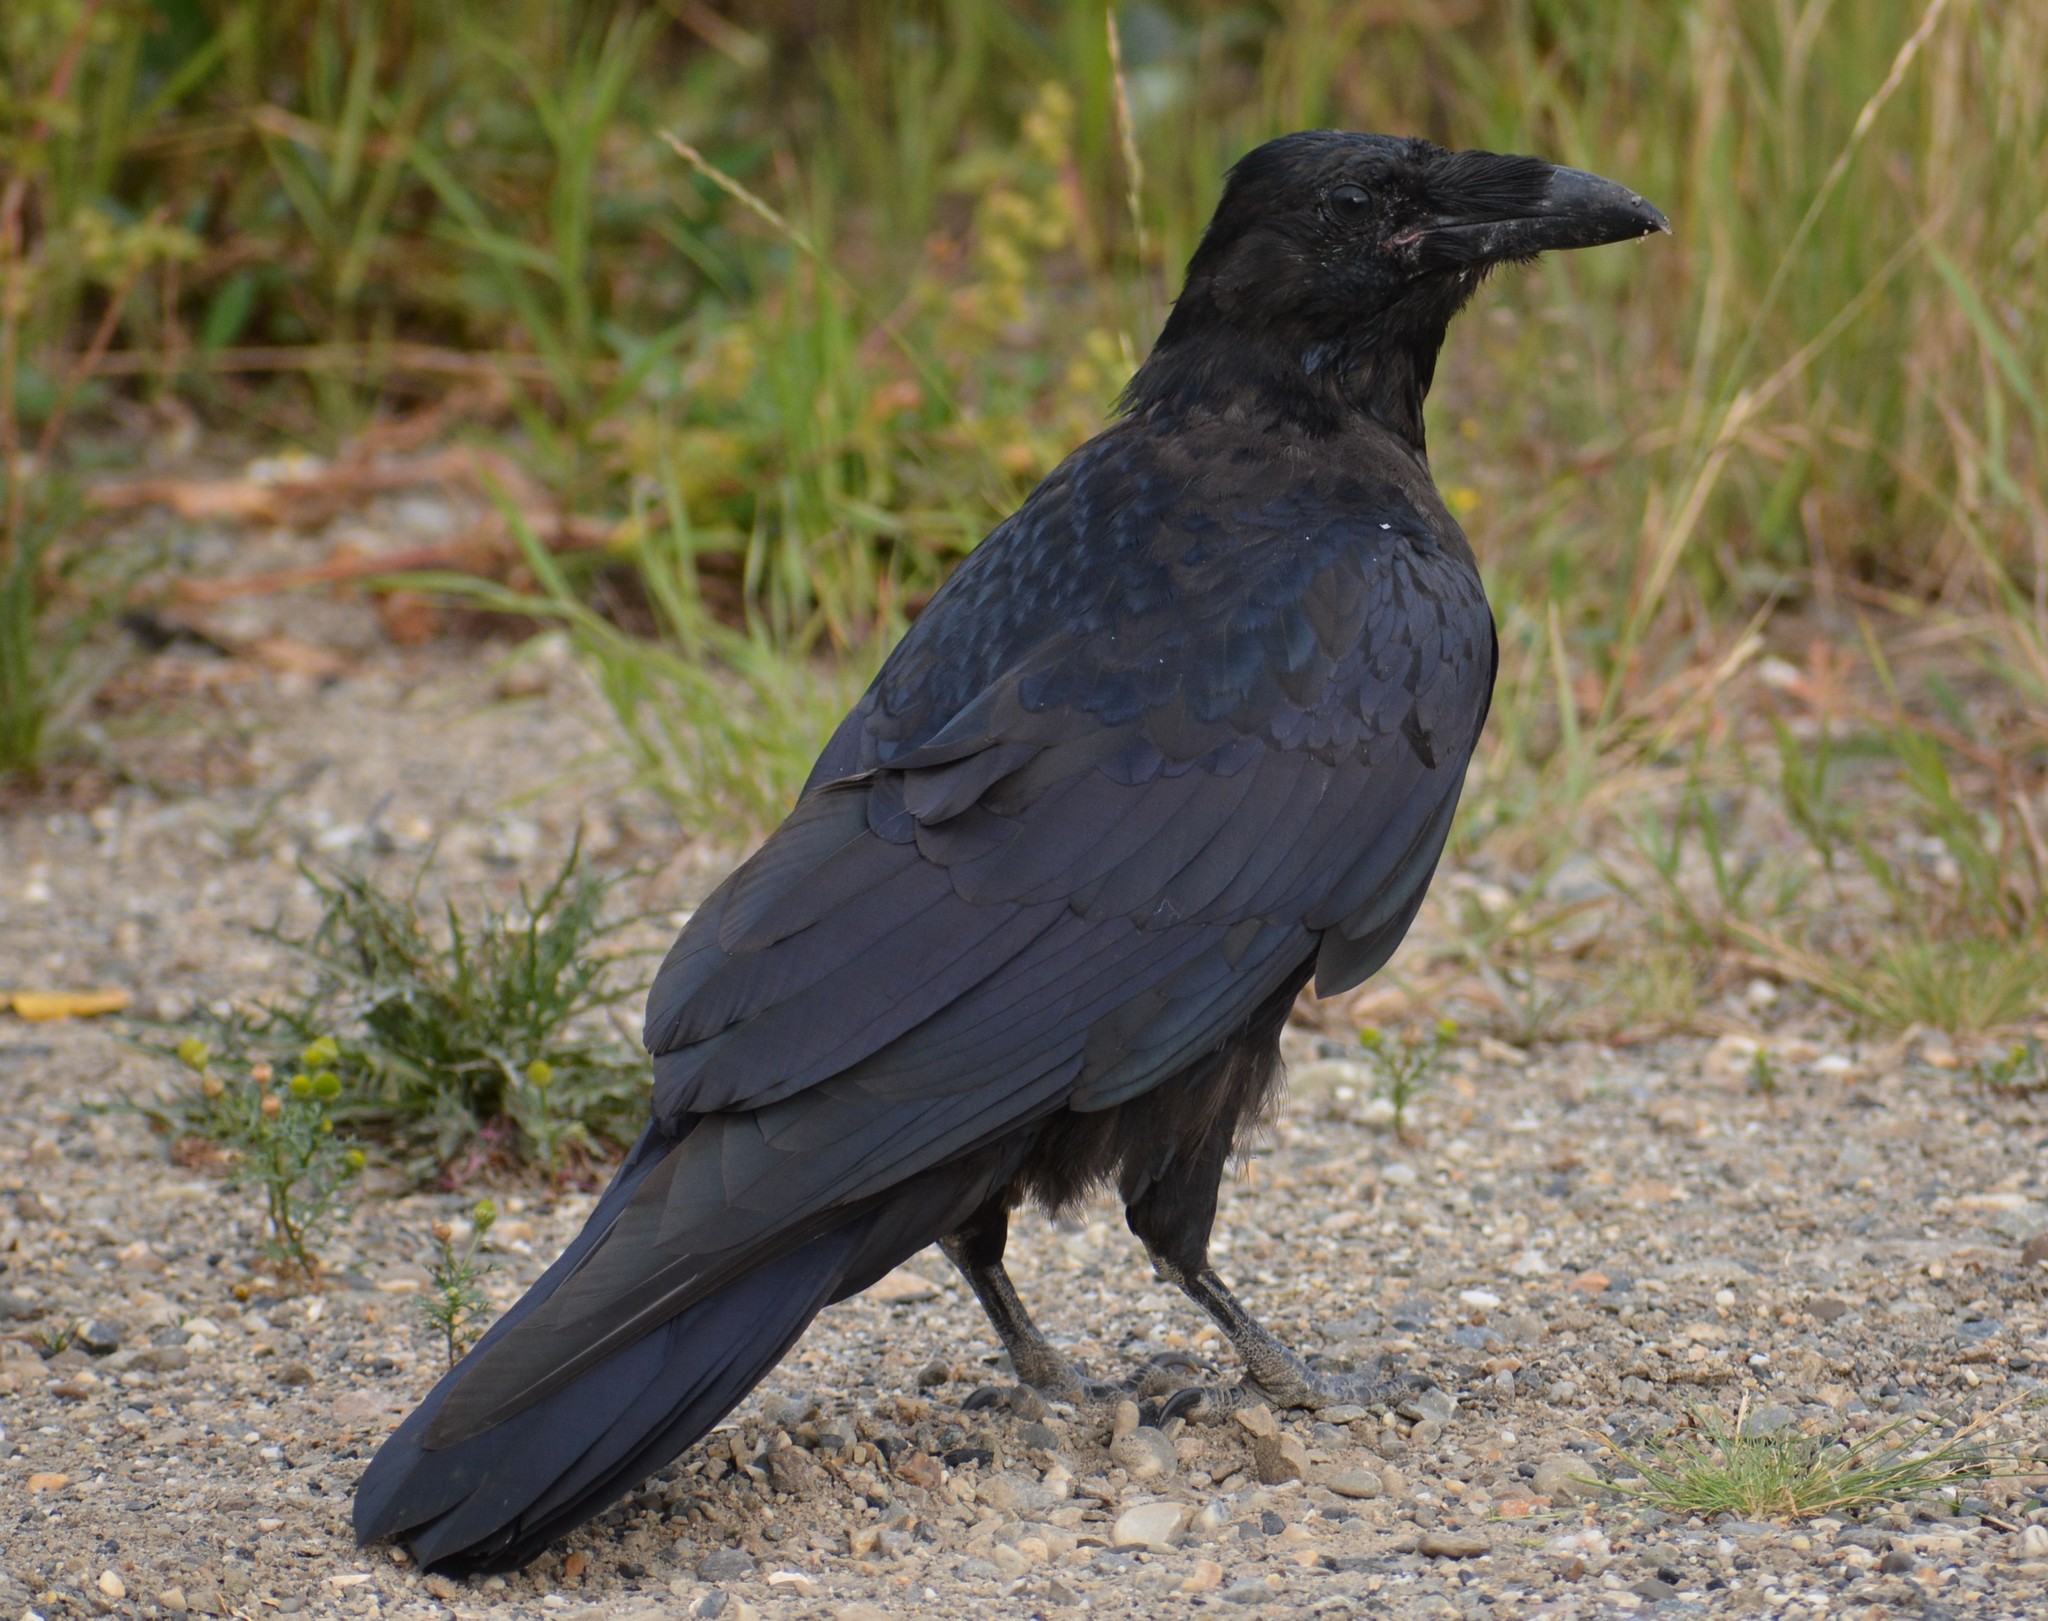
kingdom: Animalia
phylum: Chordata
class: Aves
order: Passeriformes
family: Corvidae
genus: Corvus
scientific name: Corvus corax
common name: Common raven
